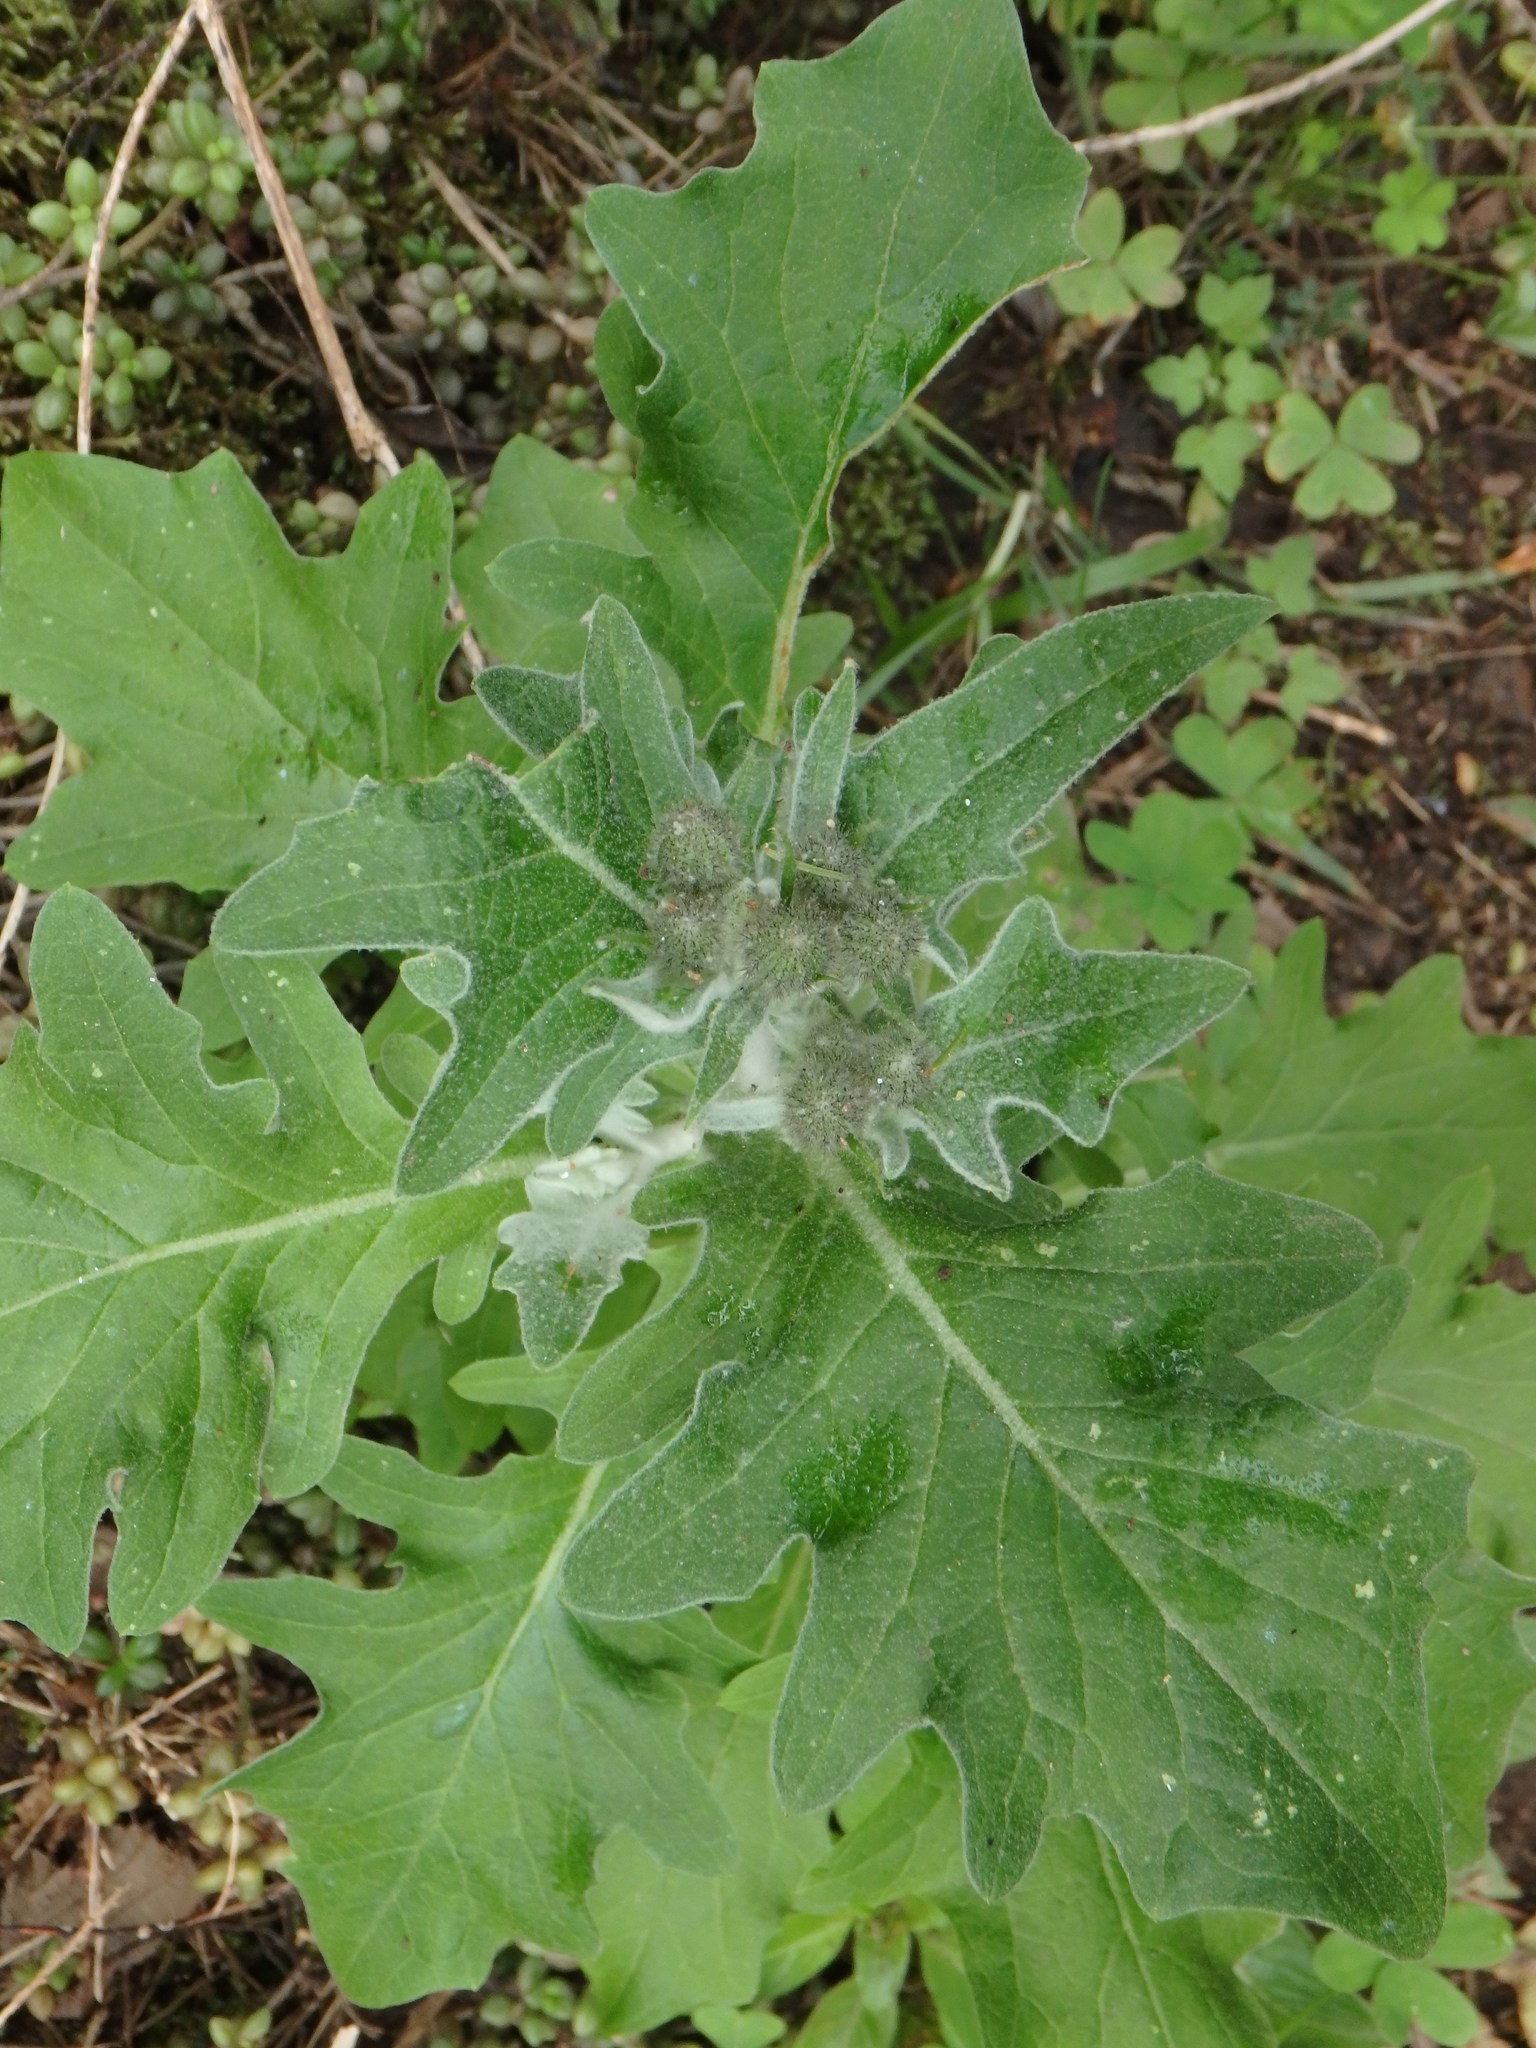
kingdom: Plantae
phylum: Tracheophyta
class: Magnoliopsida
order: Asterales
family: Asteraceae
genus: Andryala
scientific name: Andryala pinnatifida
